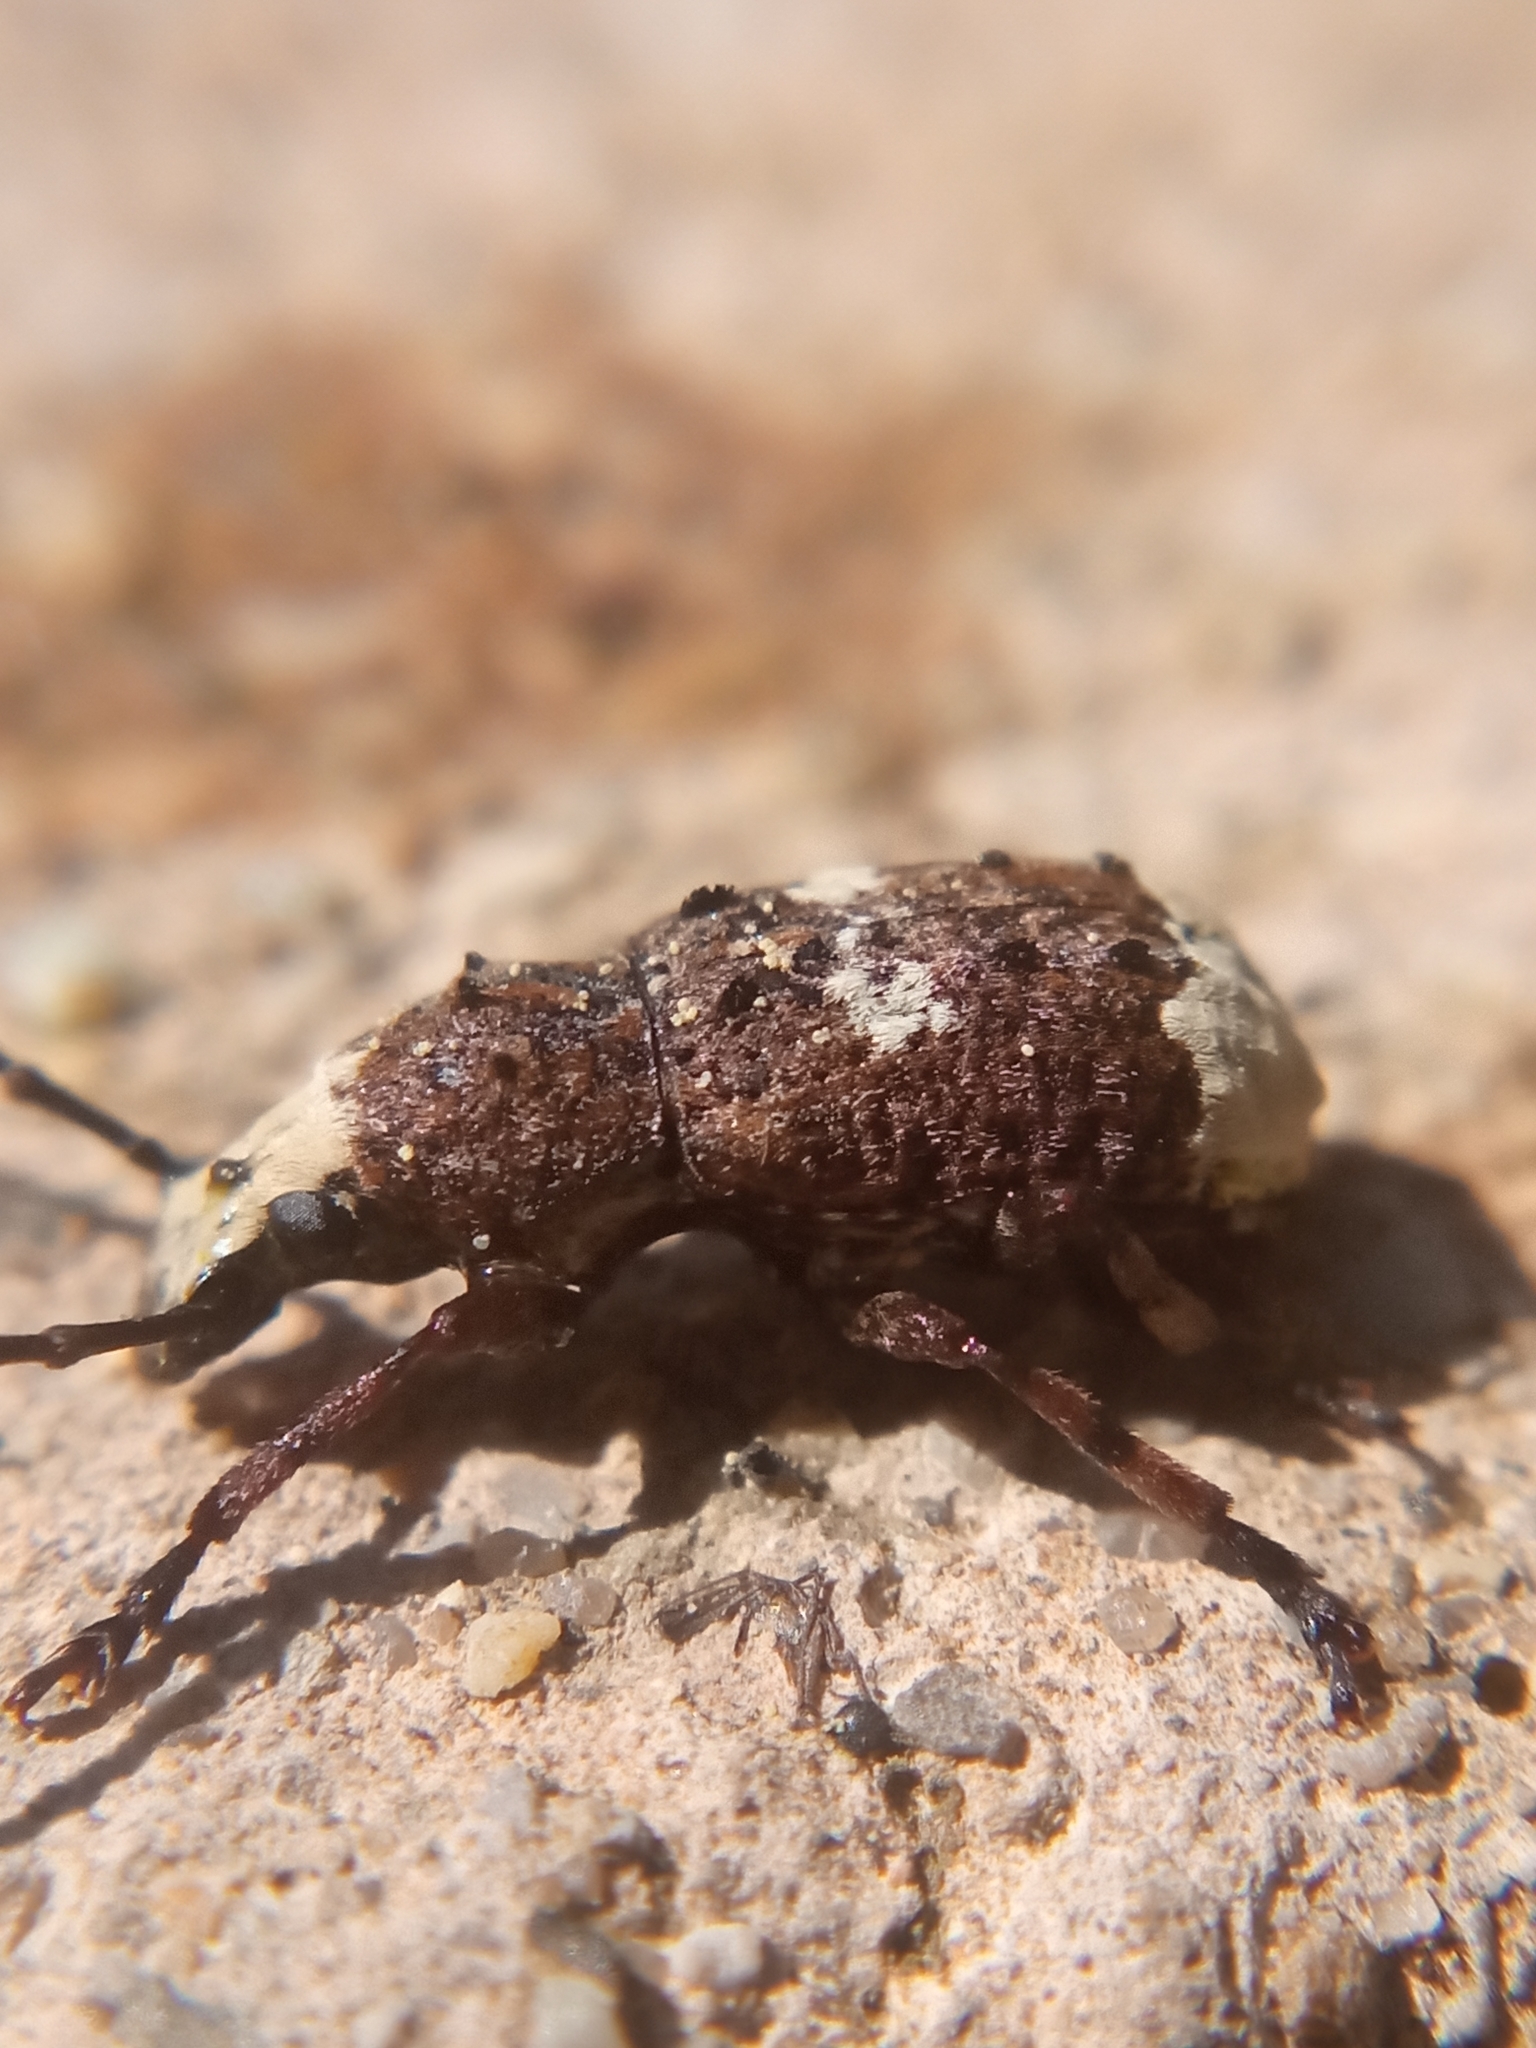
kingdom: Animalia
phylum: Arthropoda
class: Insecta
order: Coleoptera
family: Anthribidae
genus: Platystomos
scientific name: Platystomos albinus
